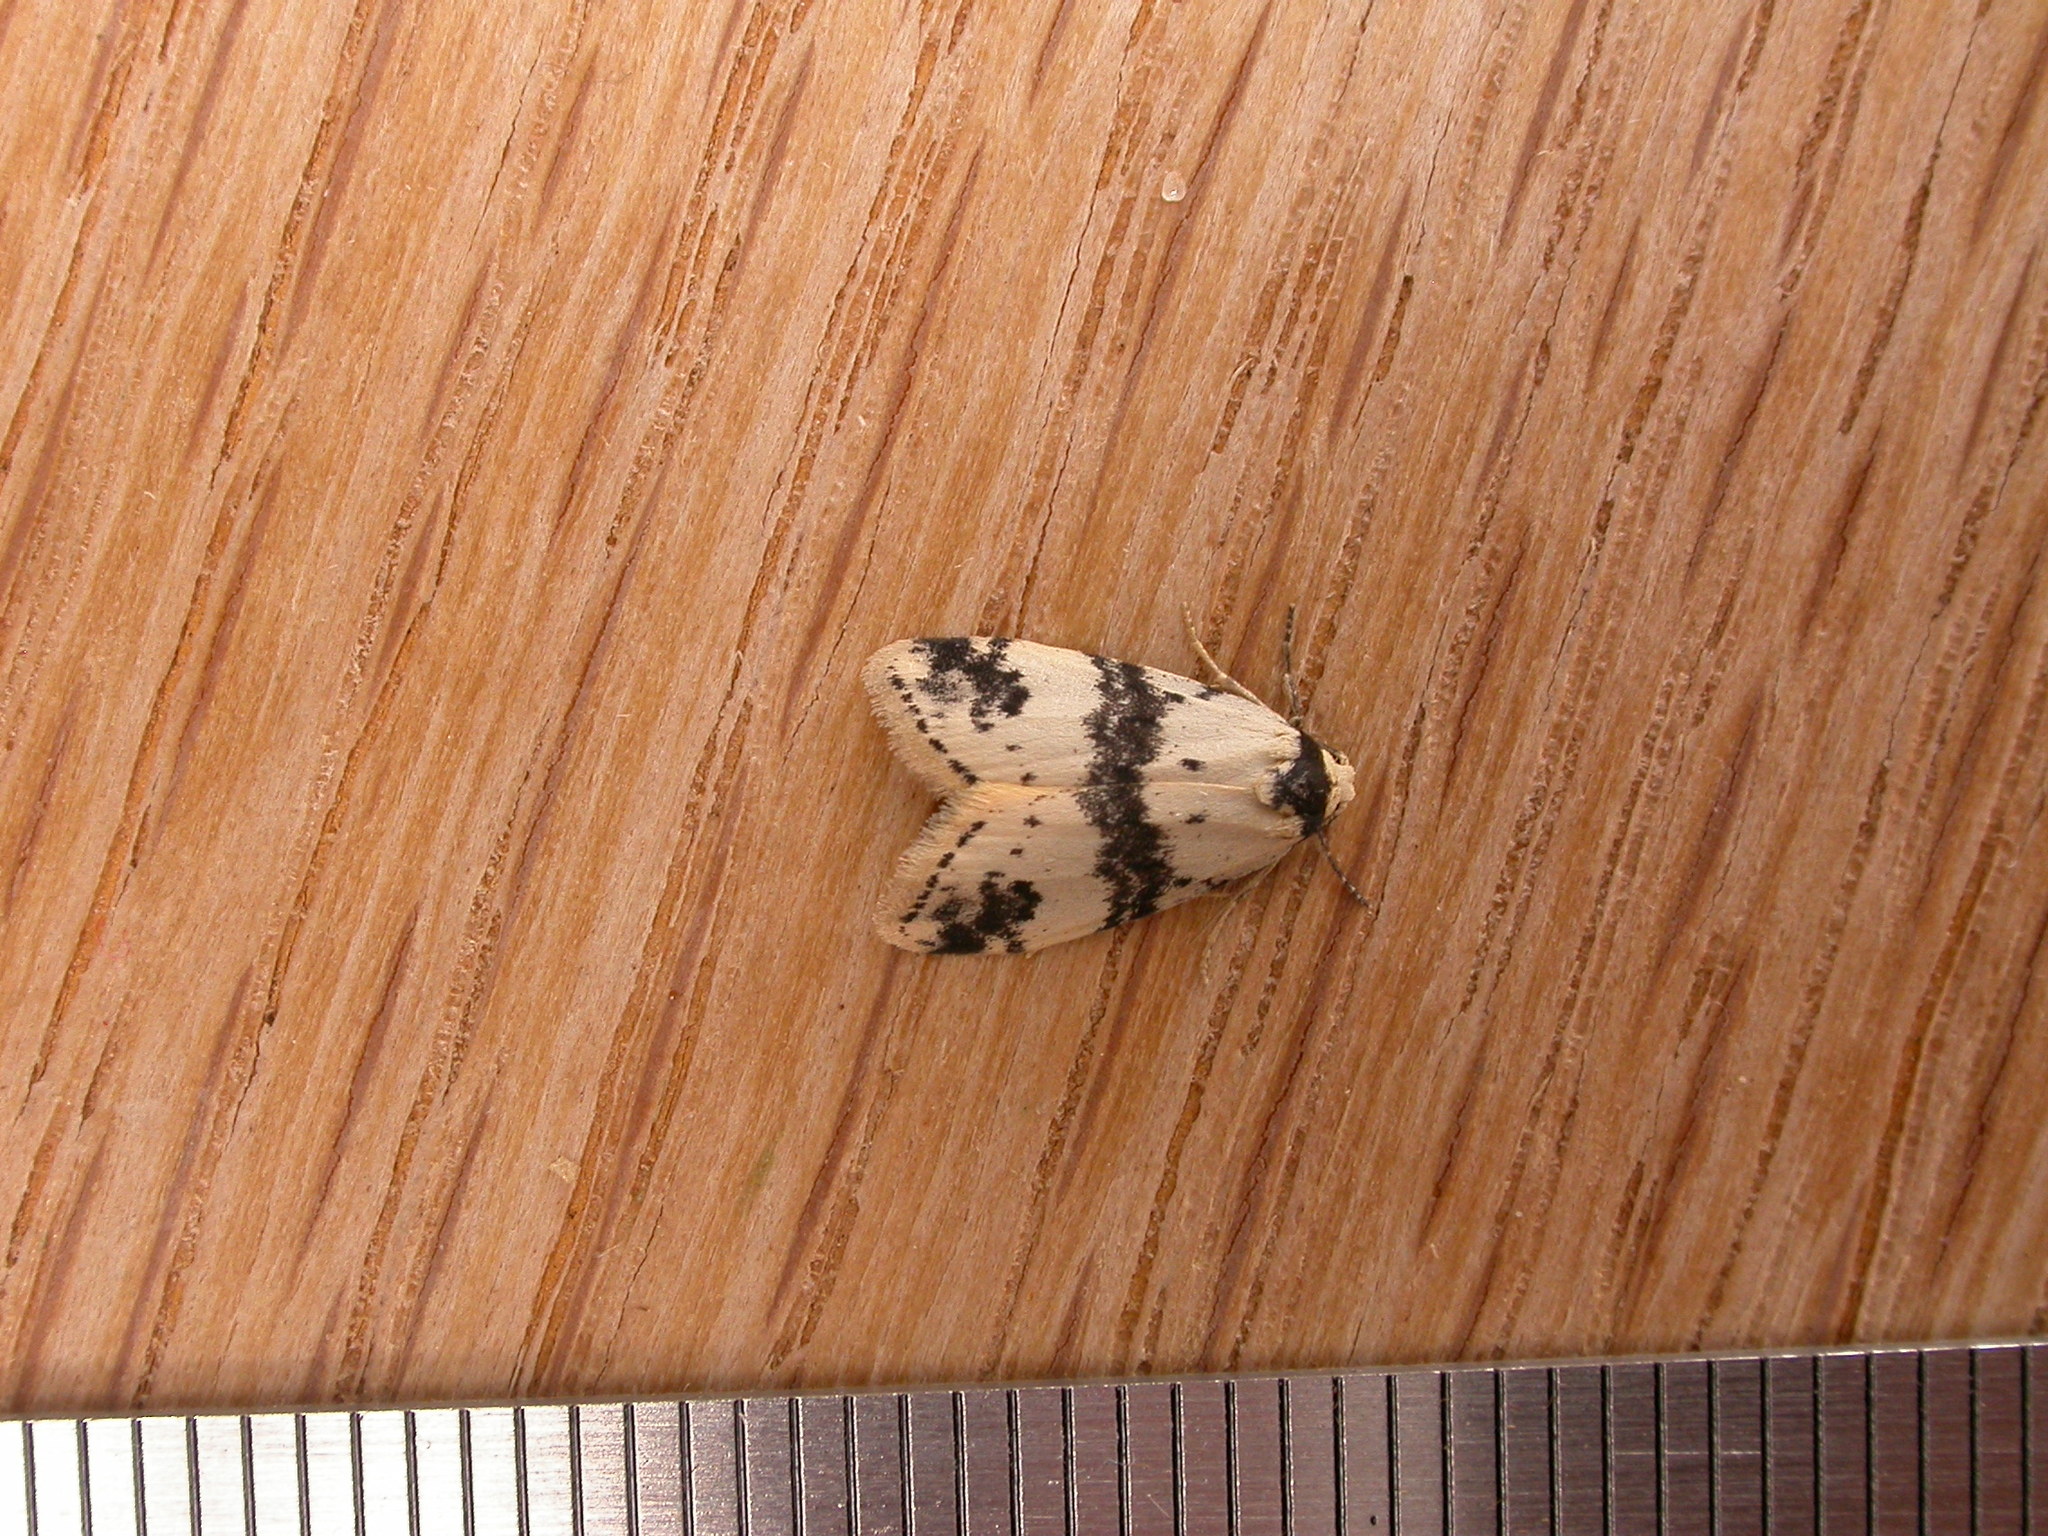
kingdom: Animalia
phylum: Arthropoda
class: Insecta
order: Lepidoptera
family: Erebidae
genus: Thallarcha
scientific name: Thallarcha sparsana
